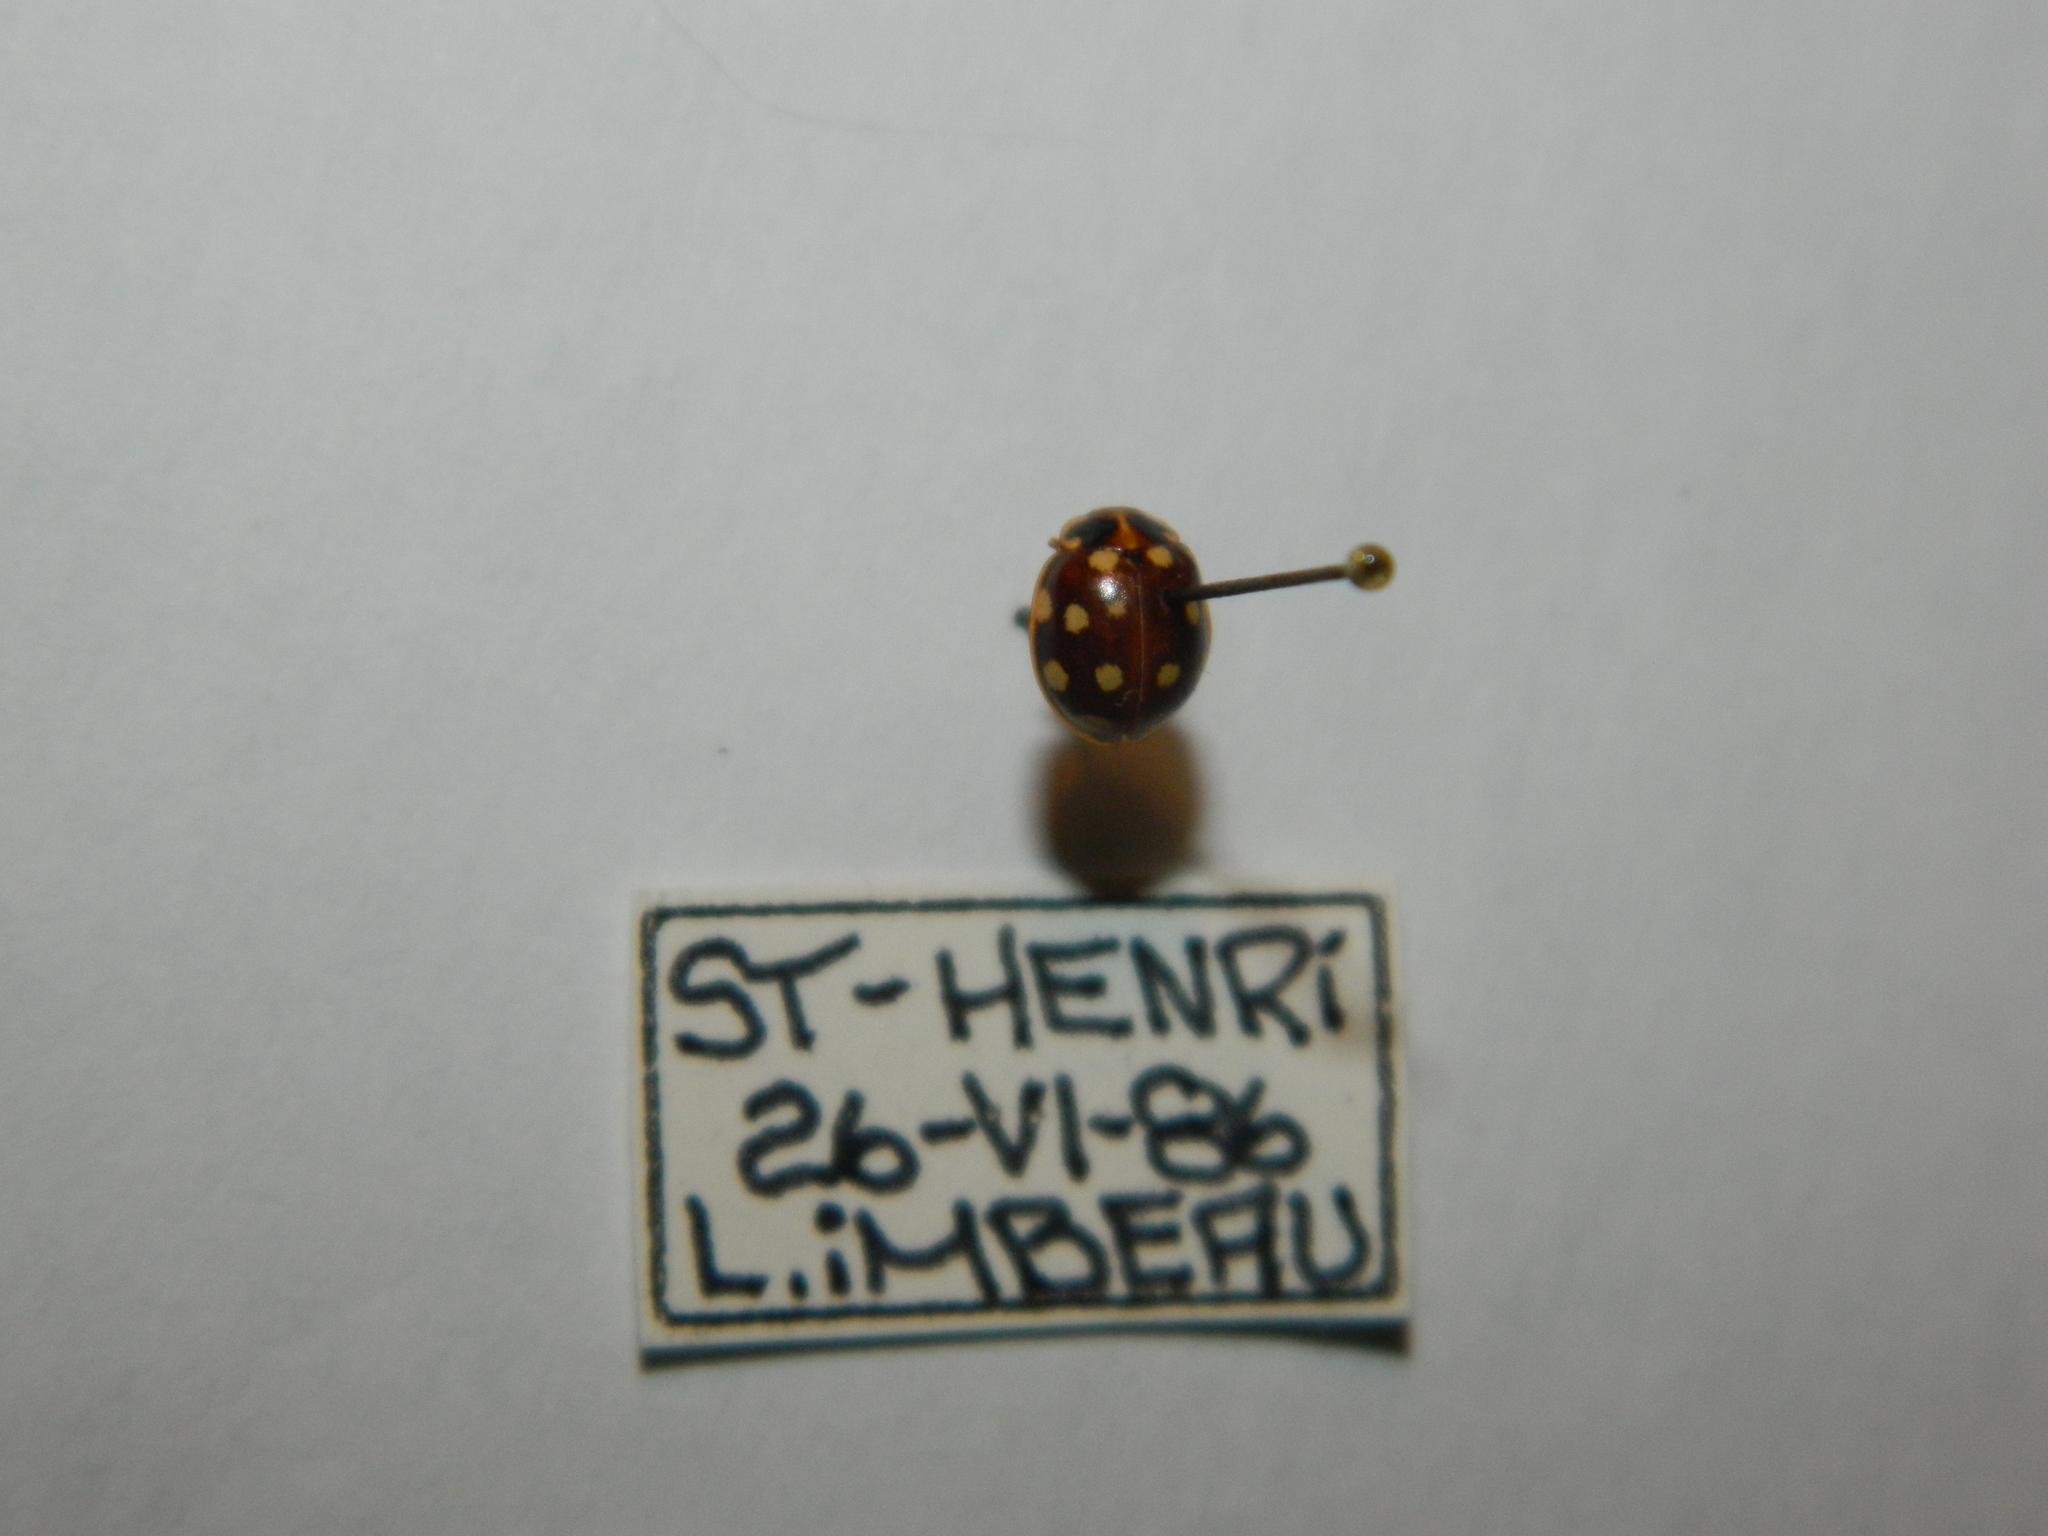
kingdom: Animalia
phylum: Arthropoda
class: Insecta
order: Coleoptera
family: Coccinellidae
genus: Calvia
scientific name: Calvia quatuordecimguttata
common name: Cream-spot ladybird
